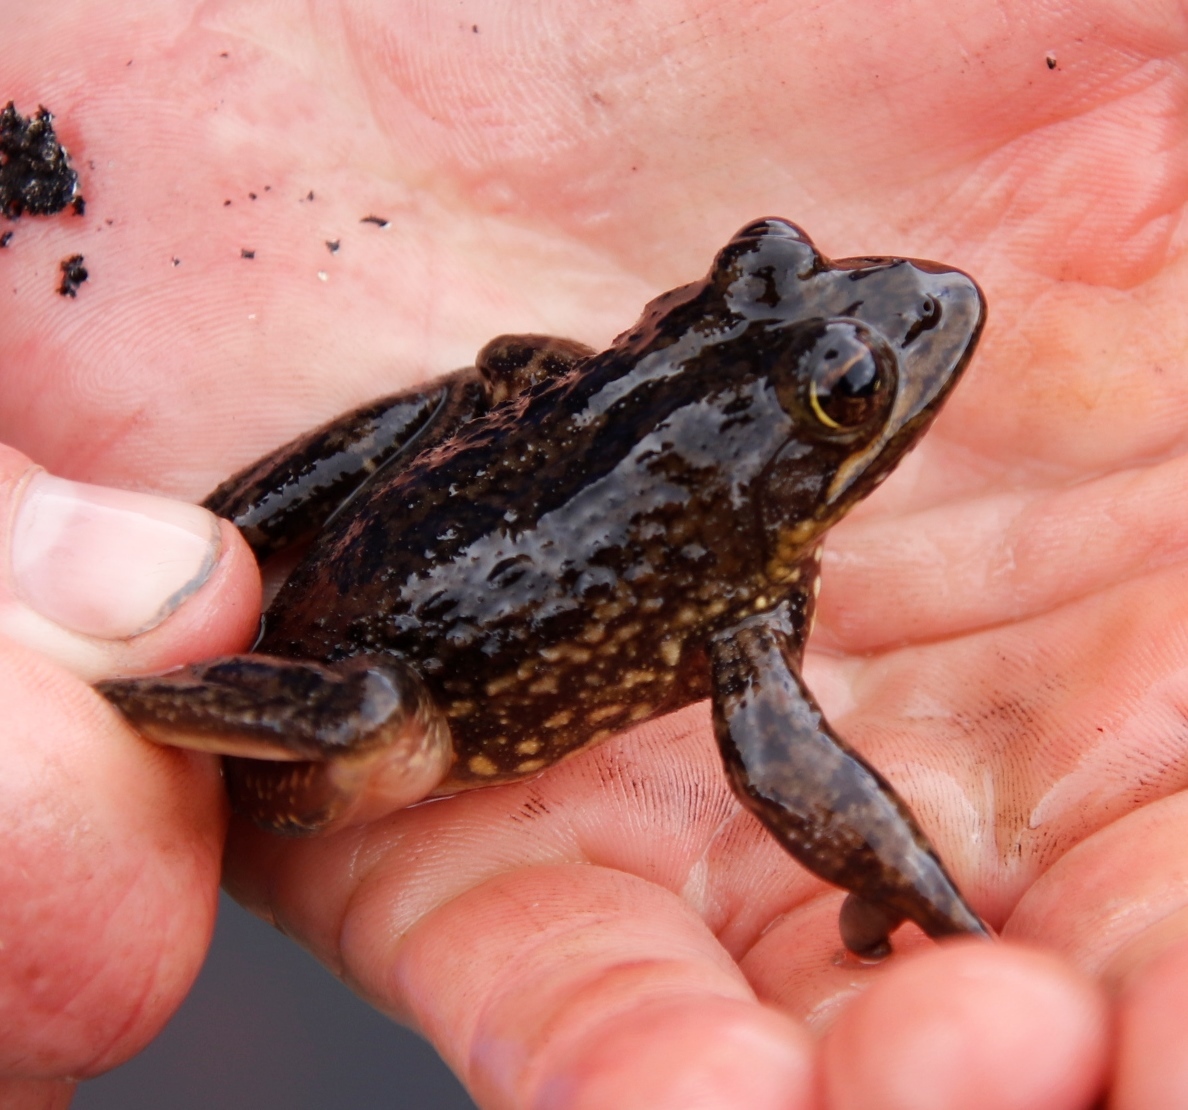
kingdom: Animalia
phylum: Chordata
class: Amphibia
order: Anura
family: Pyxicephalidae
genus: Amietia
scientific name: Amietia fuscigula
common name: Cape rana
